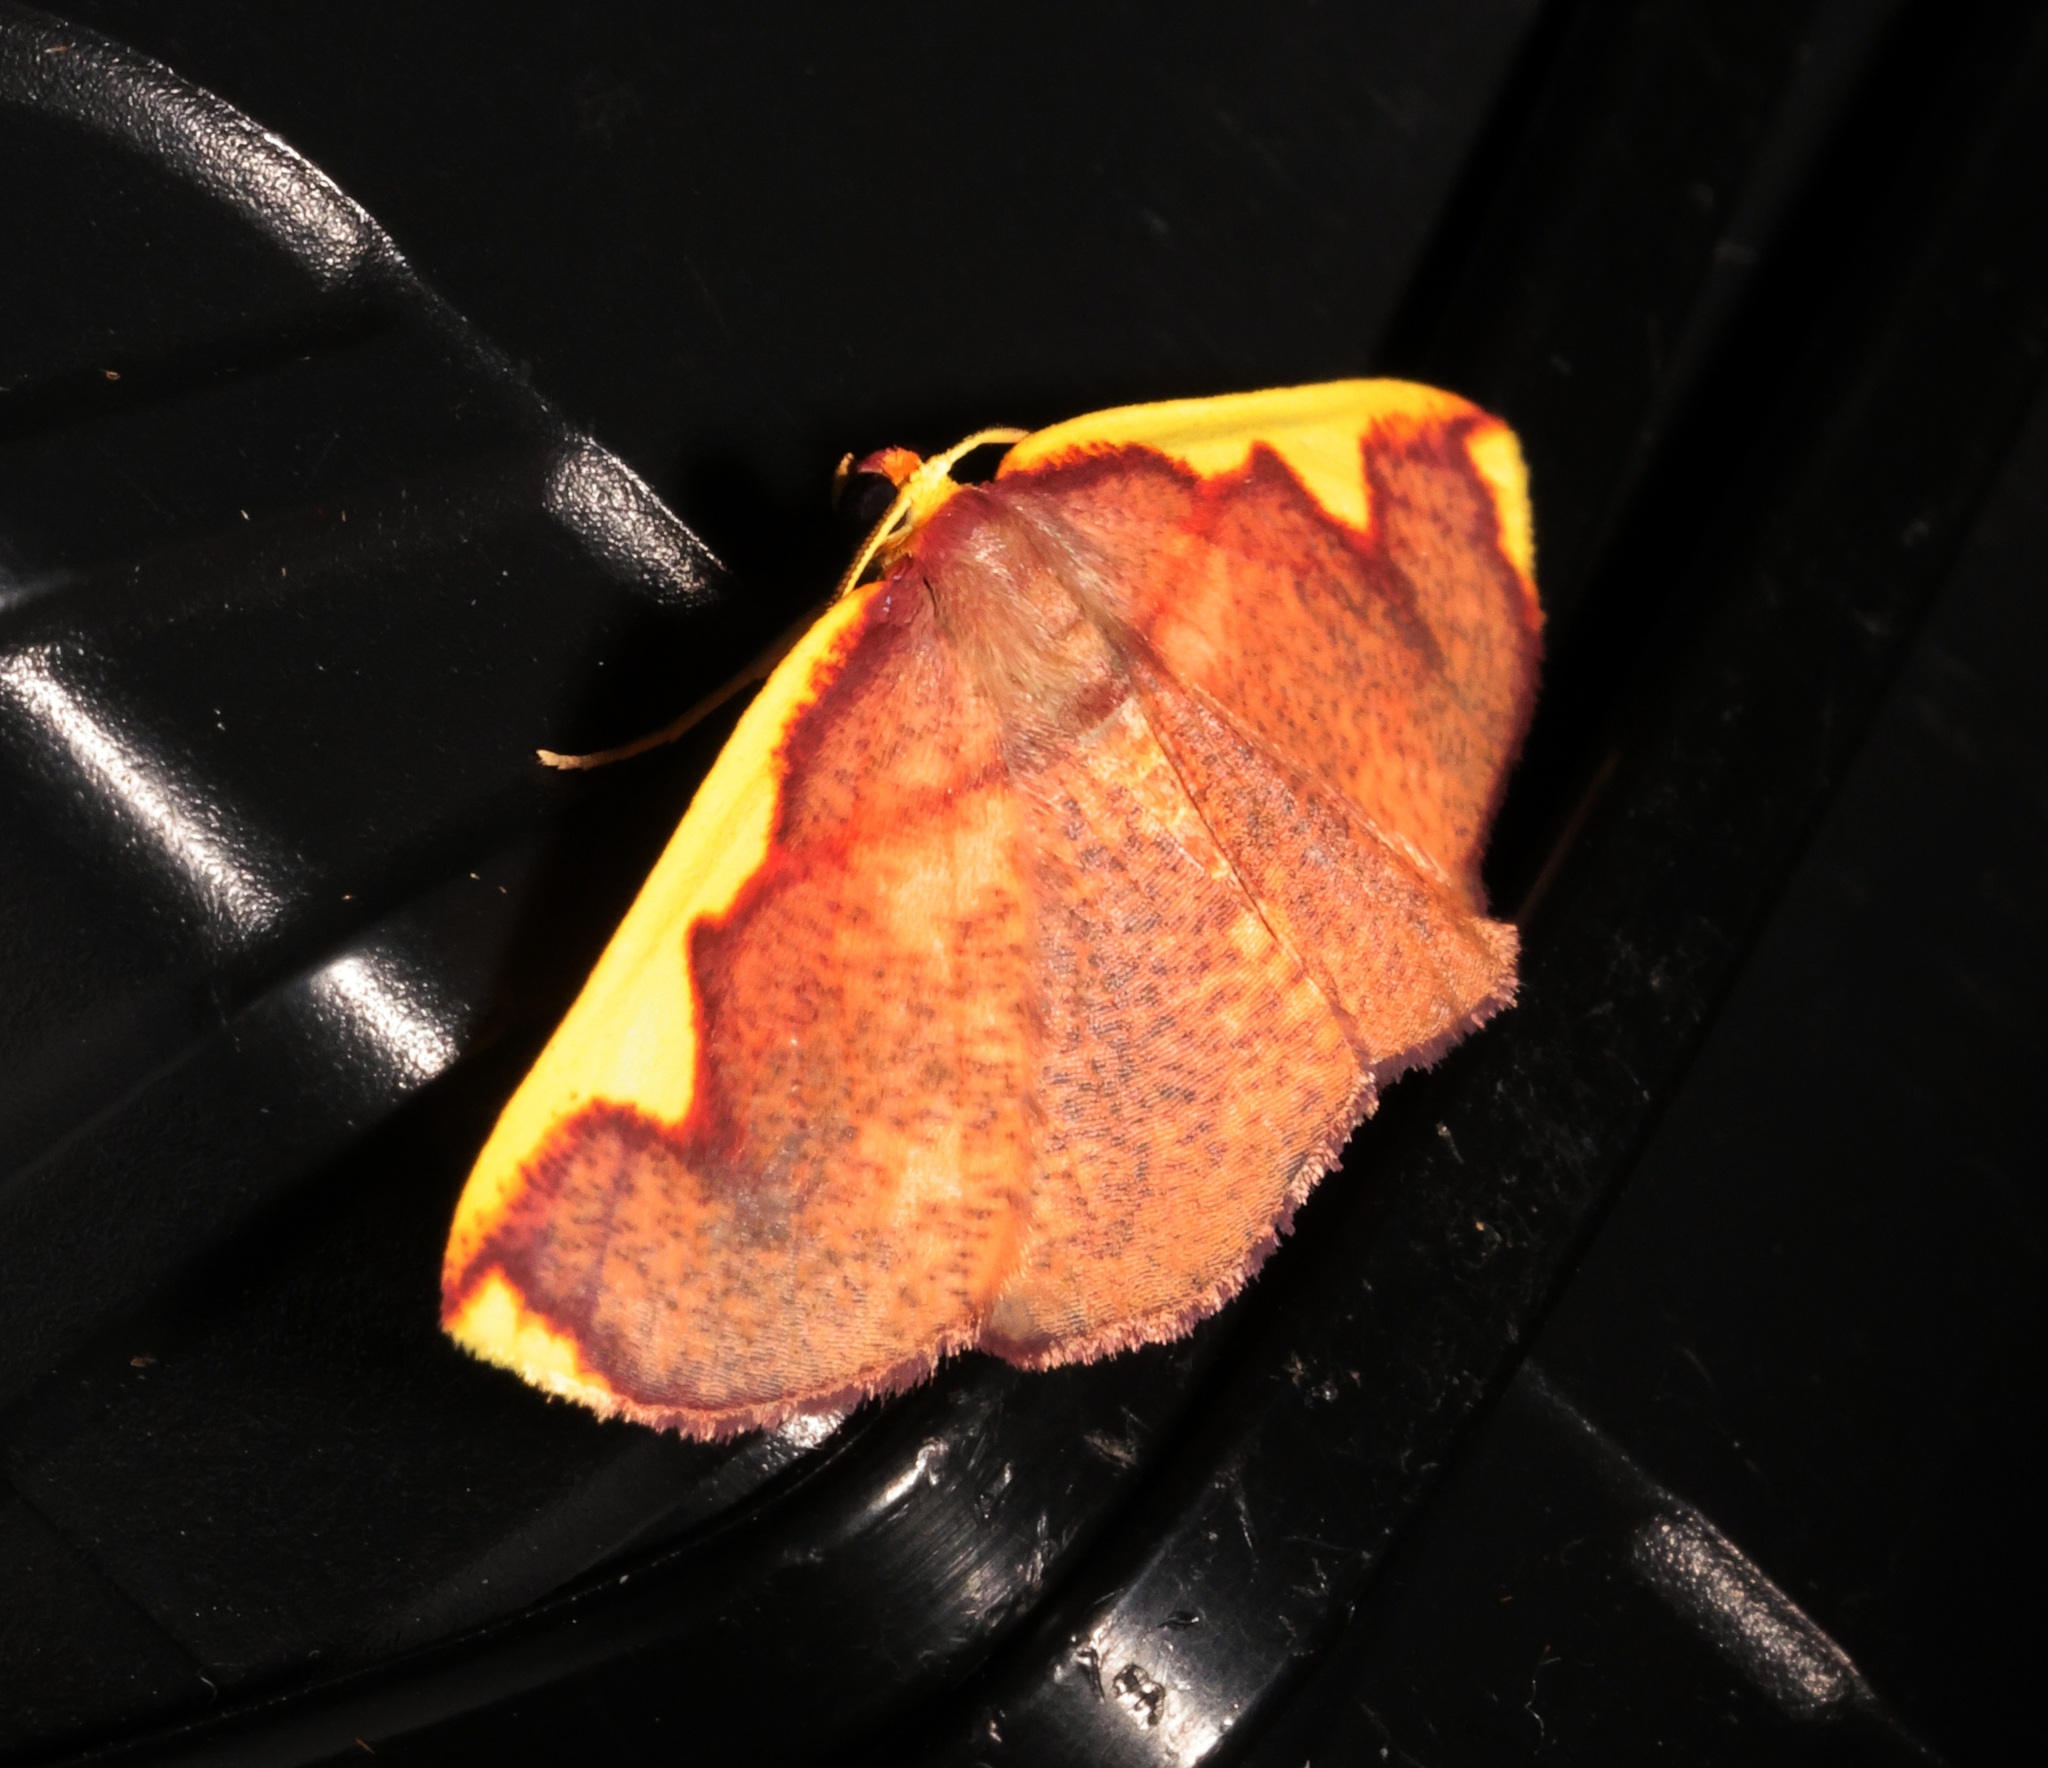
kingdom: Animalia
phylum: Arthropoda
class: Insecta
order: Lepidoptera
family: Geometridae
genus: Nothomiza
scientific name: Nothomiza flavicosta
